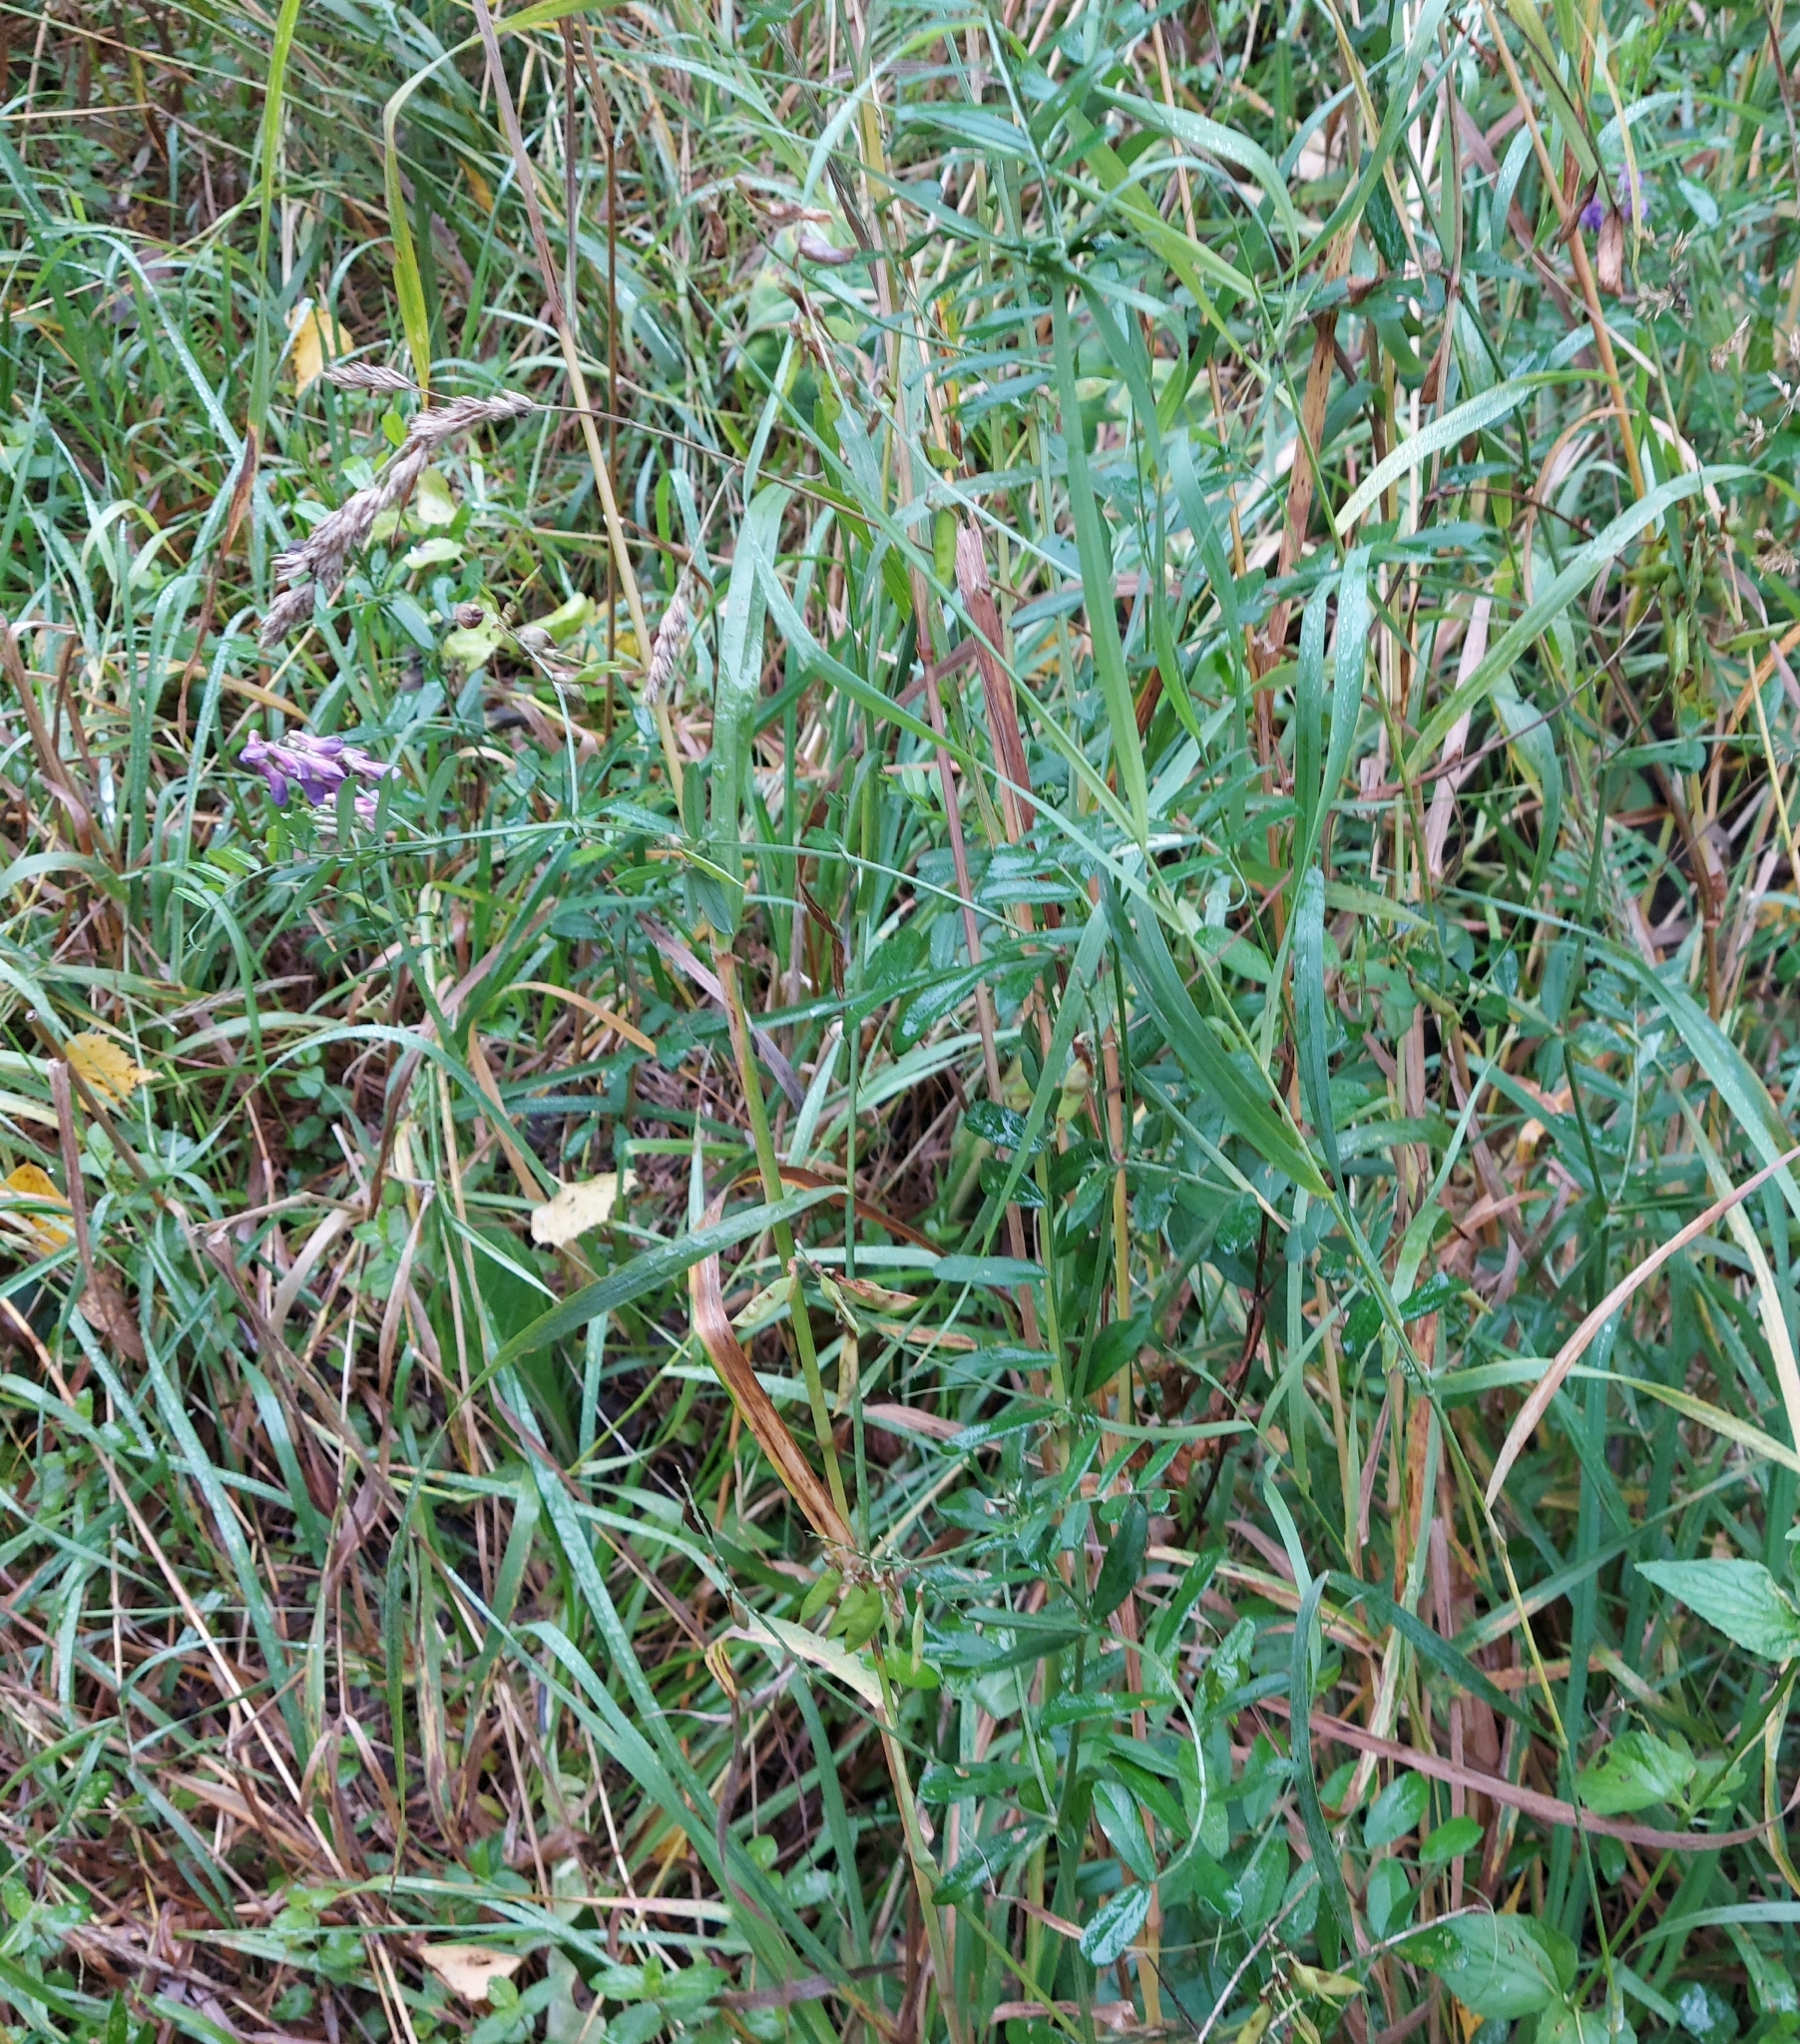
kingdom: Plantae
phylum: Tracheophyta
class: Magnoliopsida
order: Fabales
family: Fabaceae
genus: Vicia
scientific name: Vicia amoena
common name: Cheder ebs
